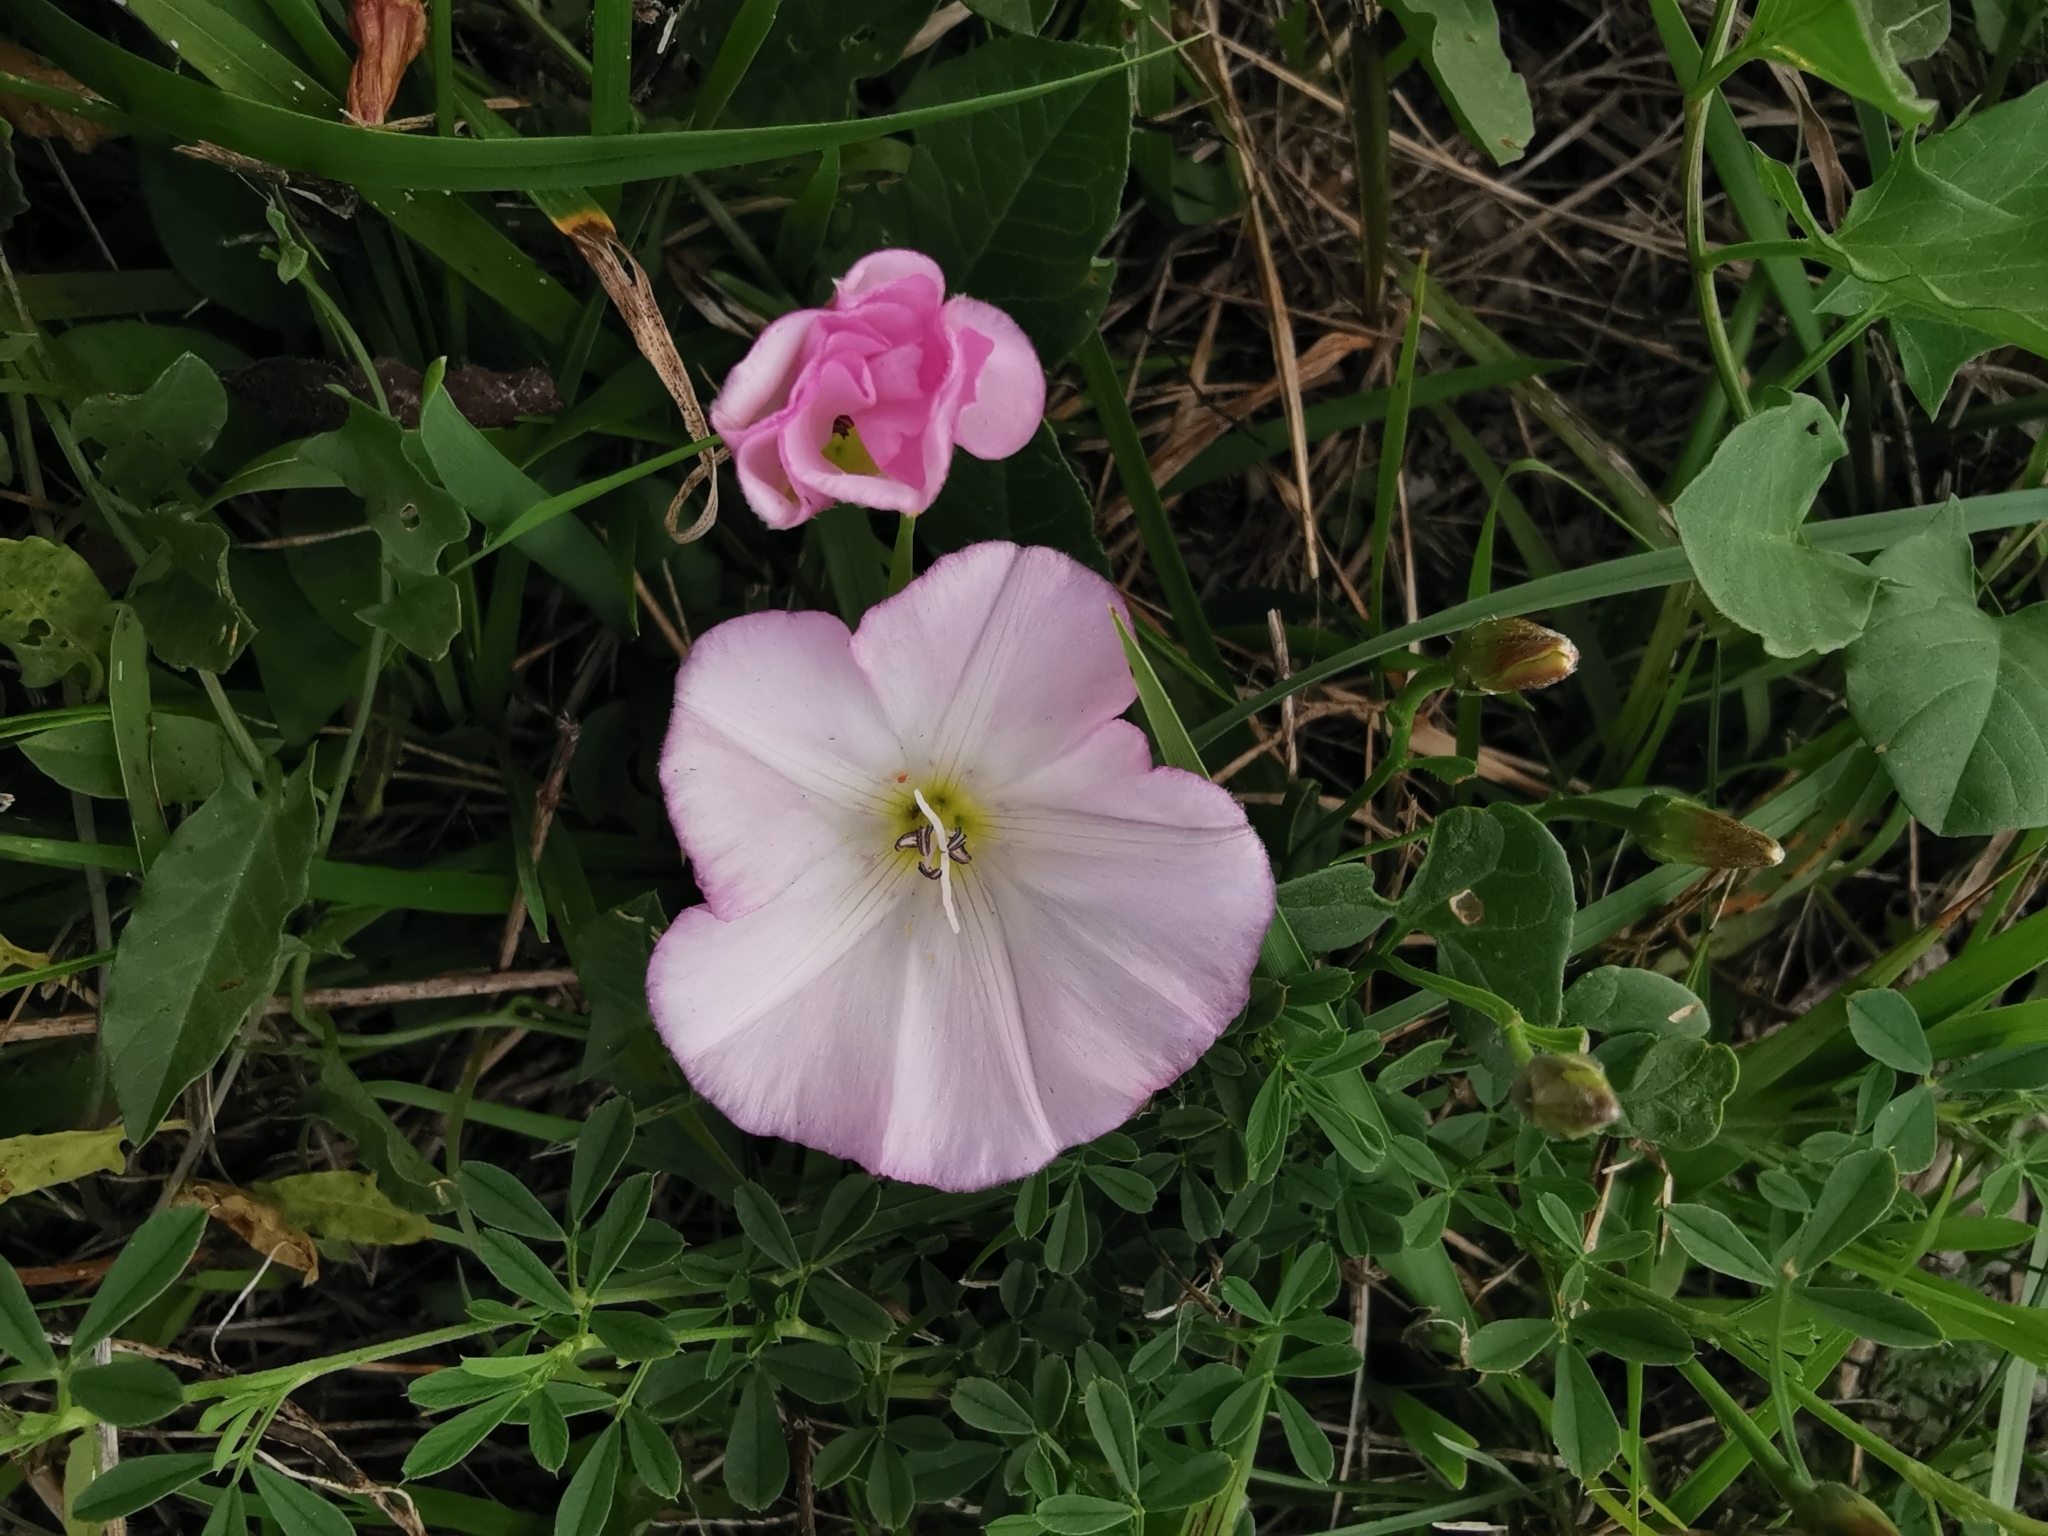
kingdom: Plantae
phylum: Tracheophyta
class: Magnoliopsida
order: Solanales
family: Convolvulaceae
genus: Convolvulus
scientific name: Convolvulus arvensis
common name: Field bindweed
